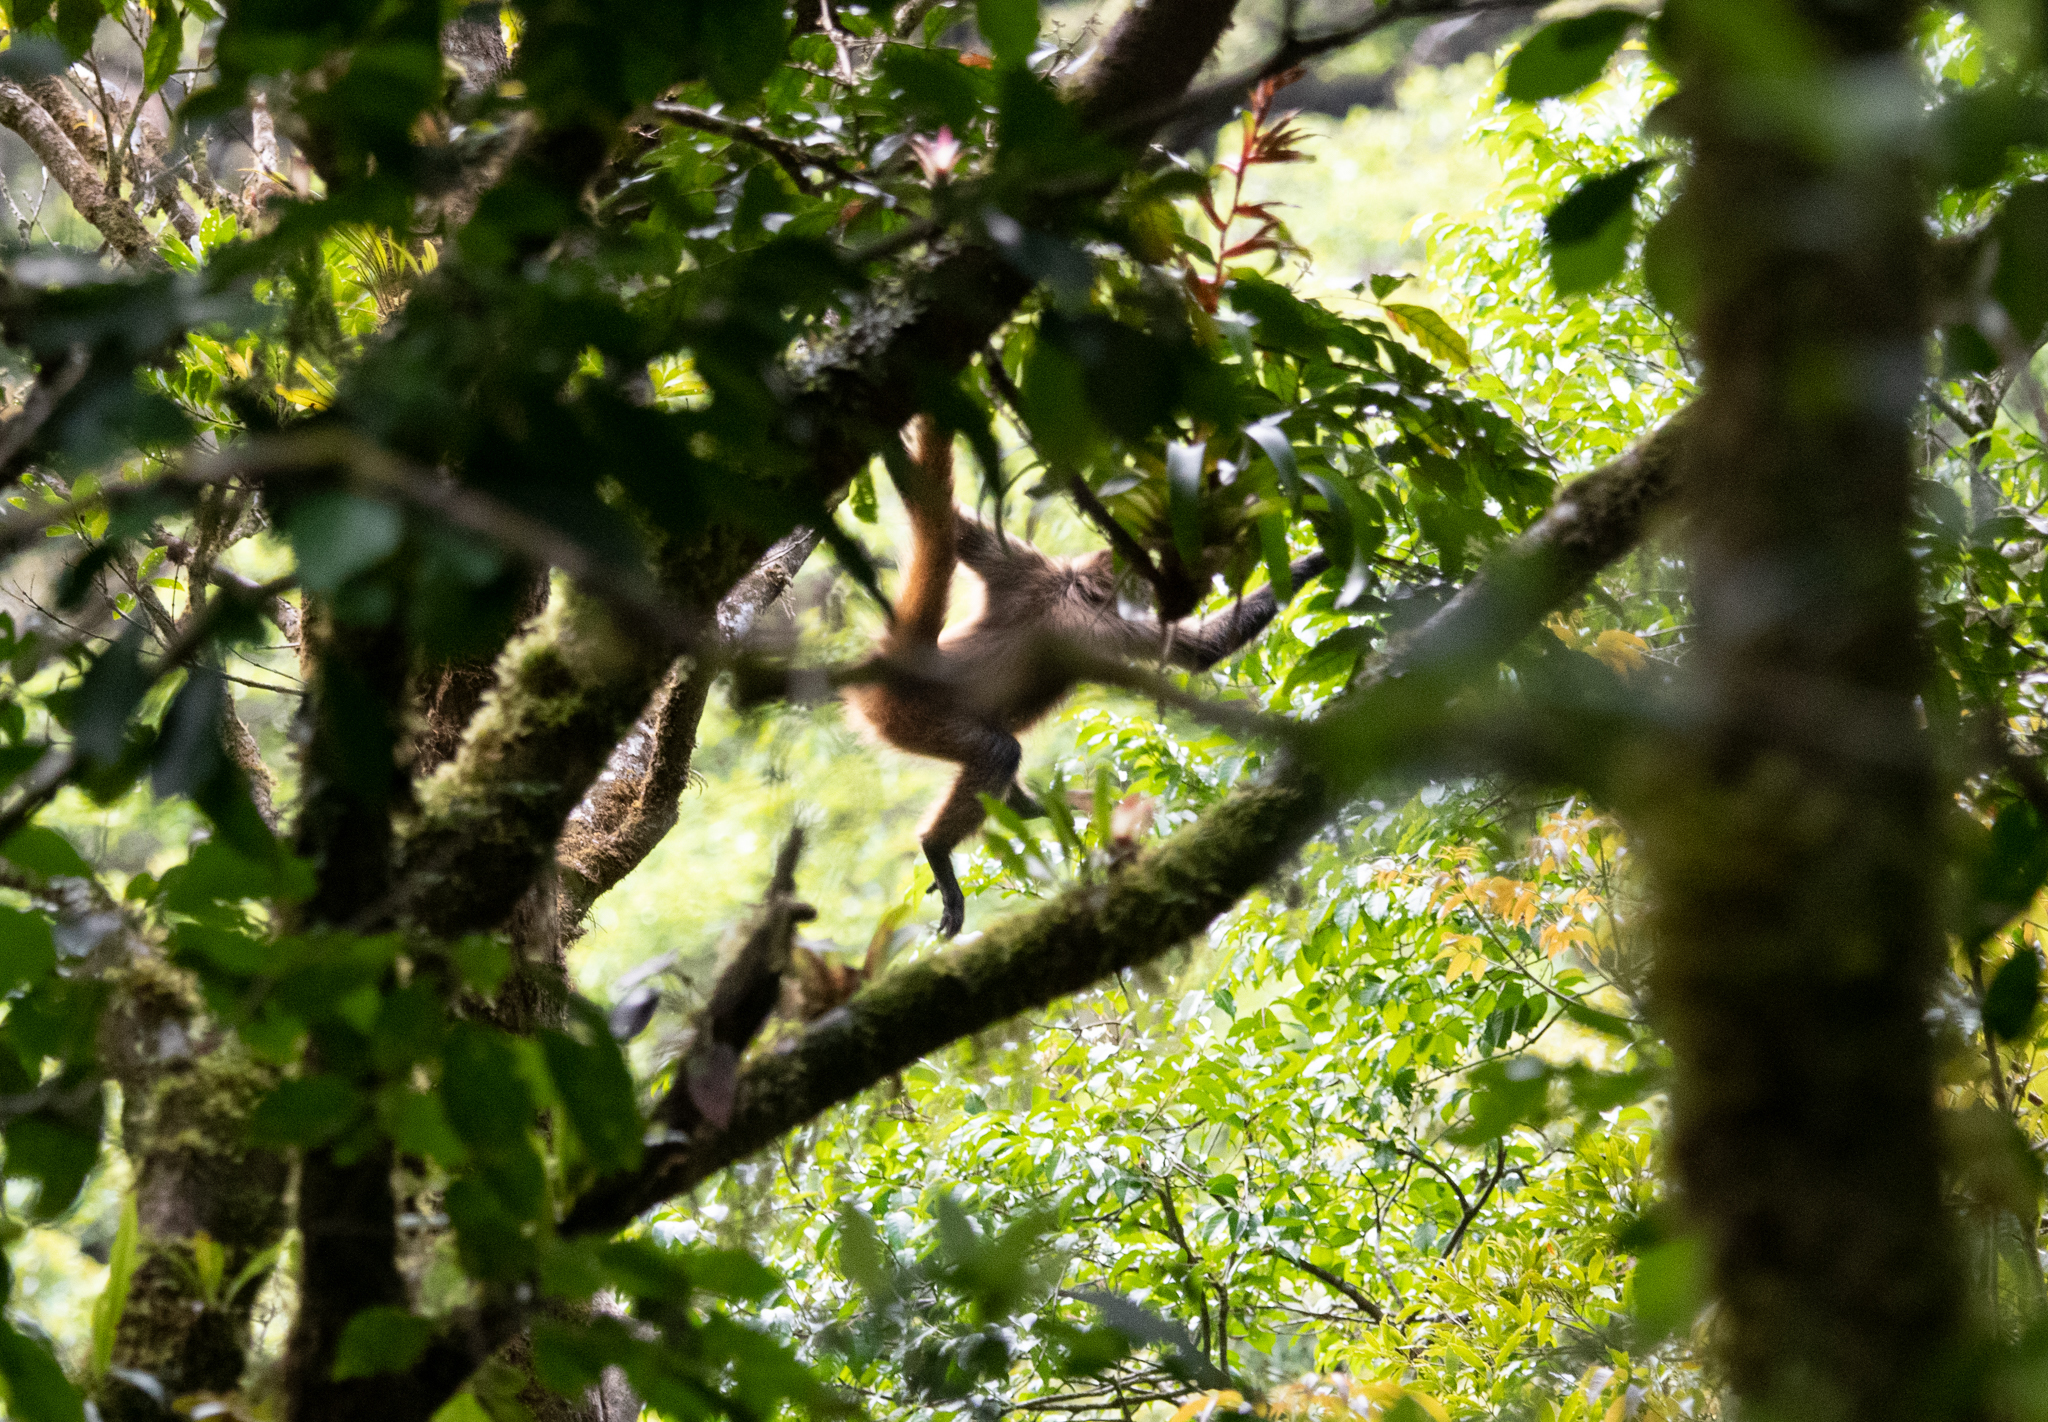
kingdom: Animalia
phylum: Chordata
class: Mammalia
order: Primates
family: Atelidae
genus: Ateles
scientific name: Ateles geoffroyi
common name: Black-handed spider monkey
